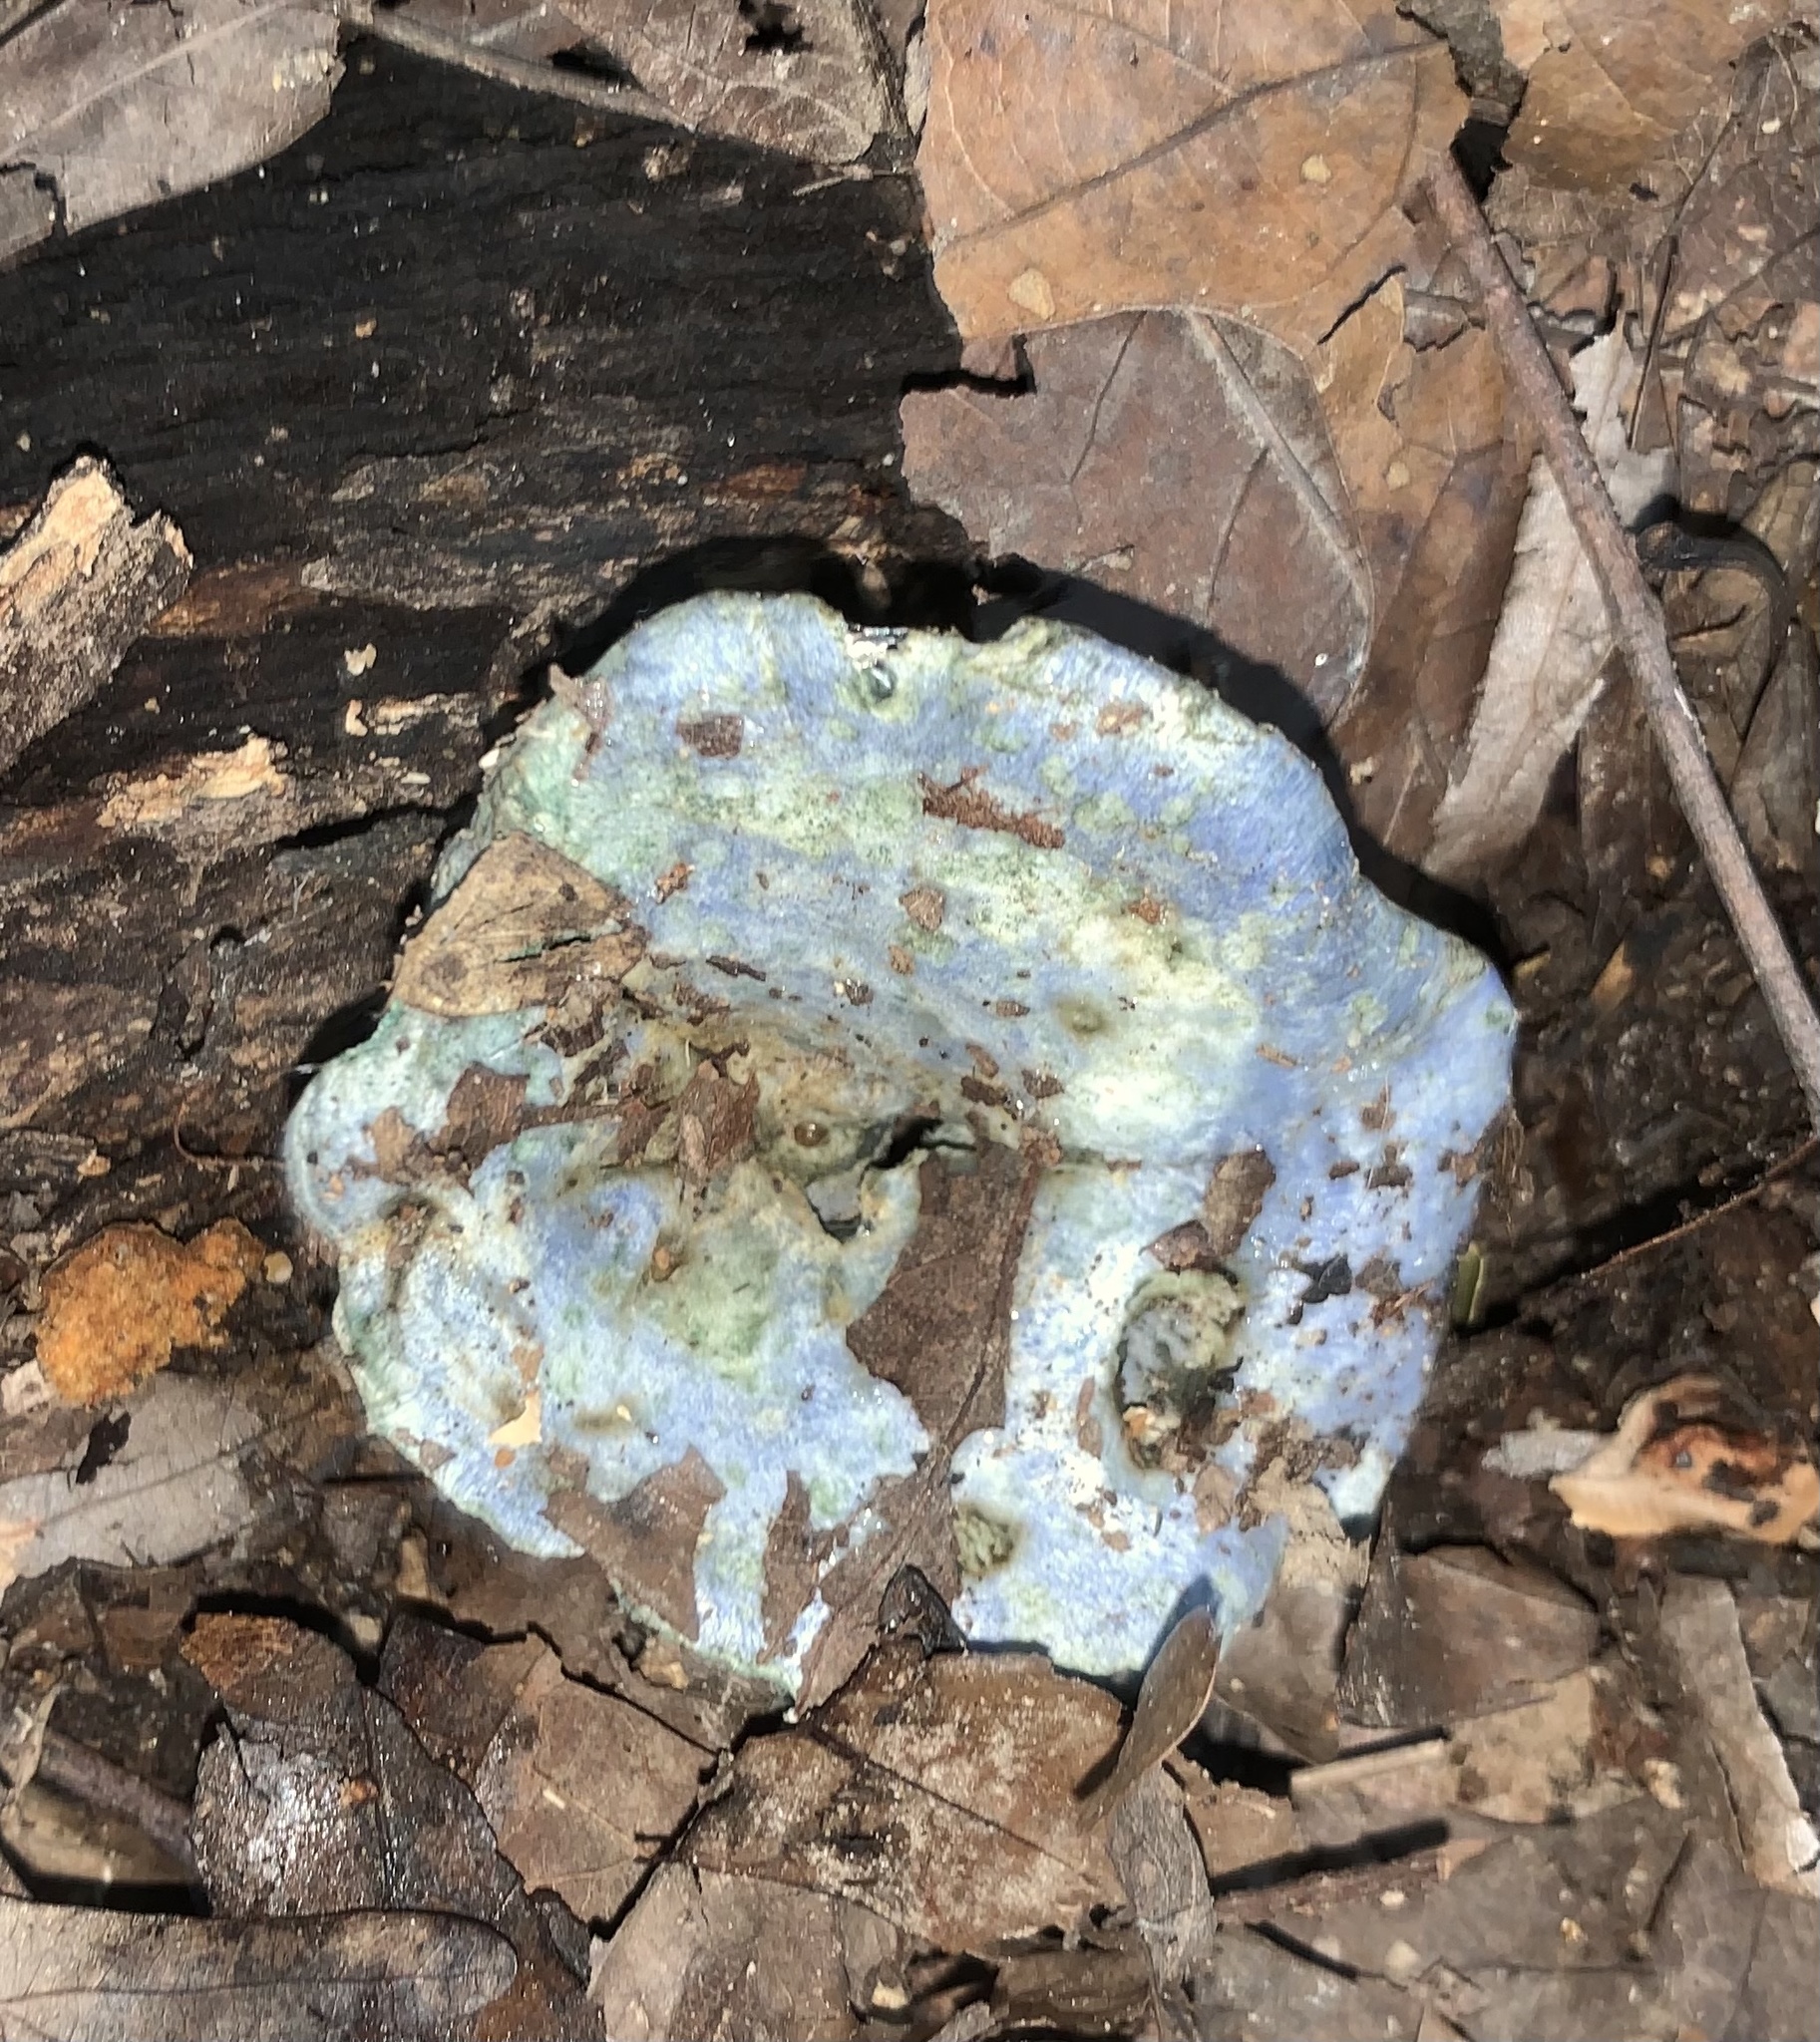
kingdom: Fungi
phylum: Basidiomycota
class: Agaricomycetes
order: Russulales
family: Russulaceae
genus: Lactarius
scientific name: Lactarius indigo
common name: Indigo milk cap
